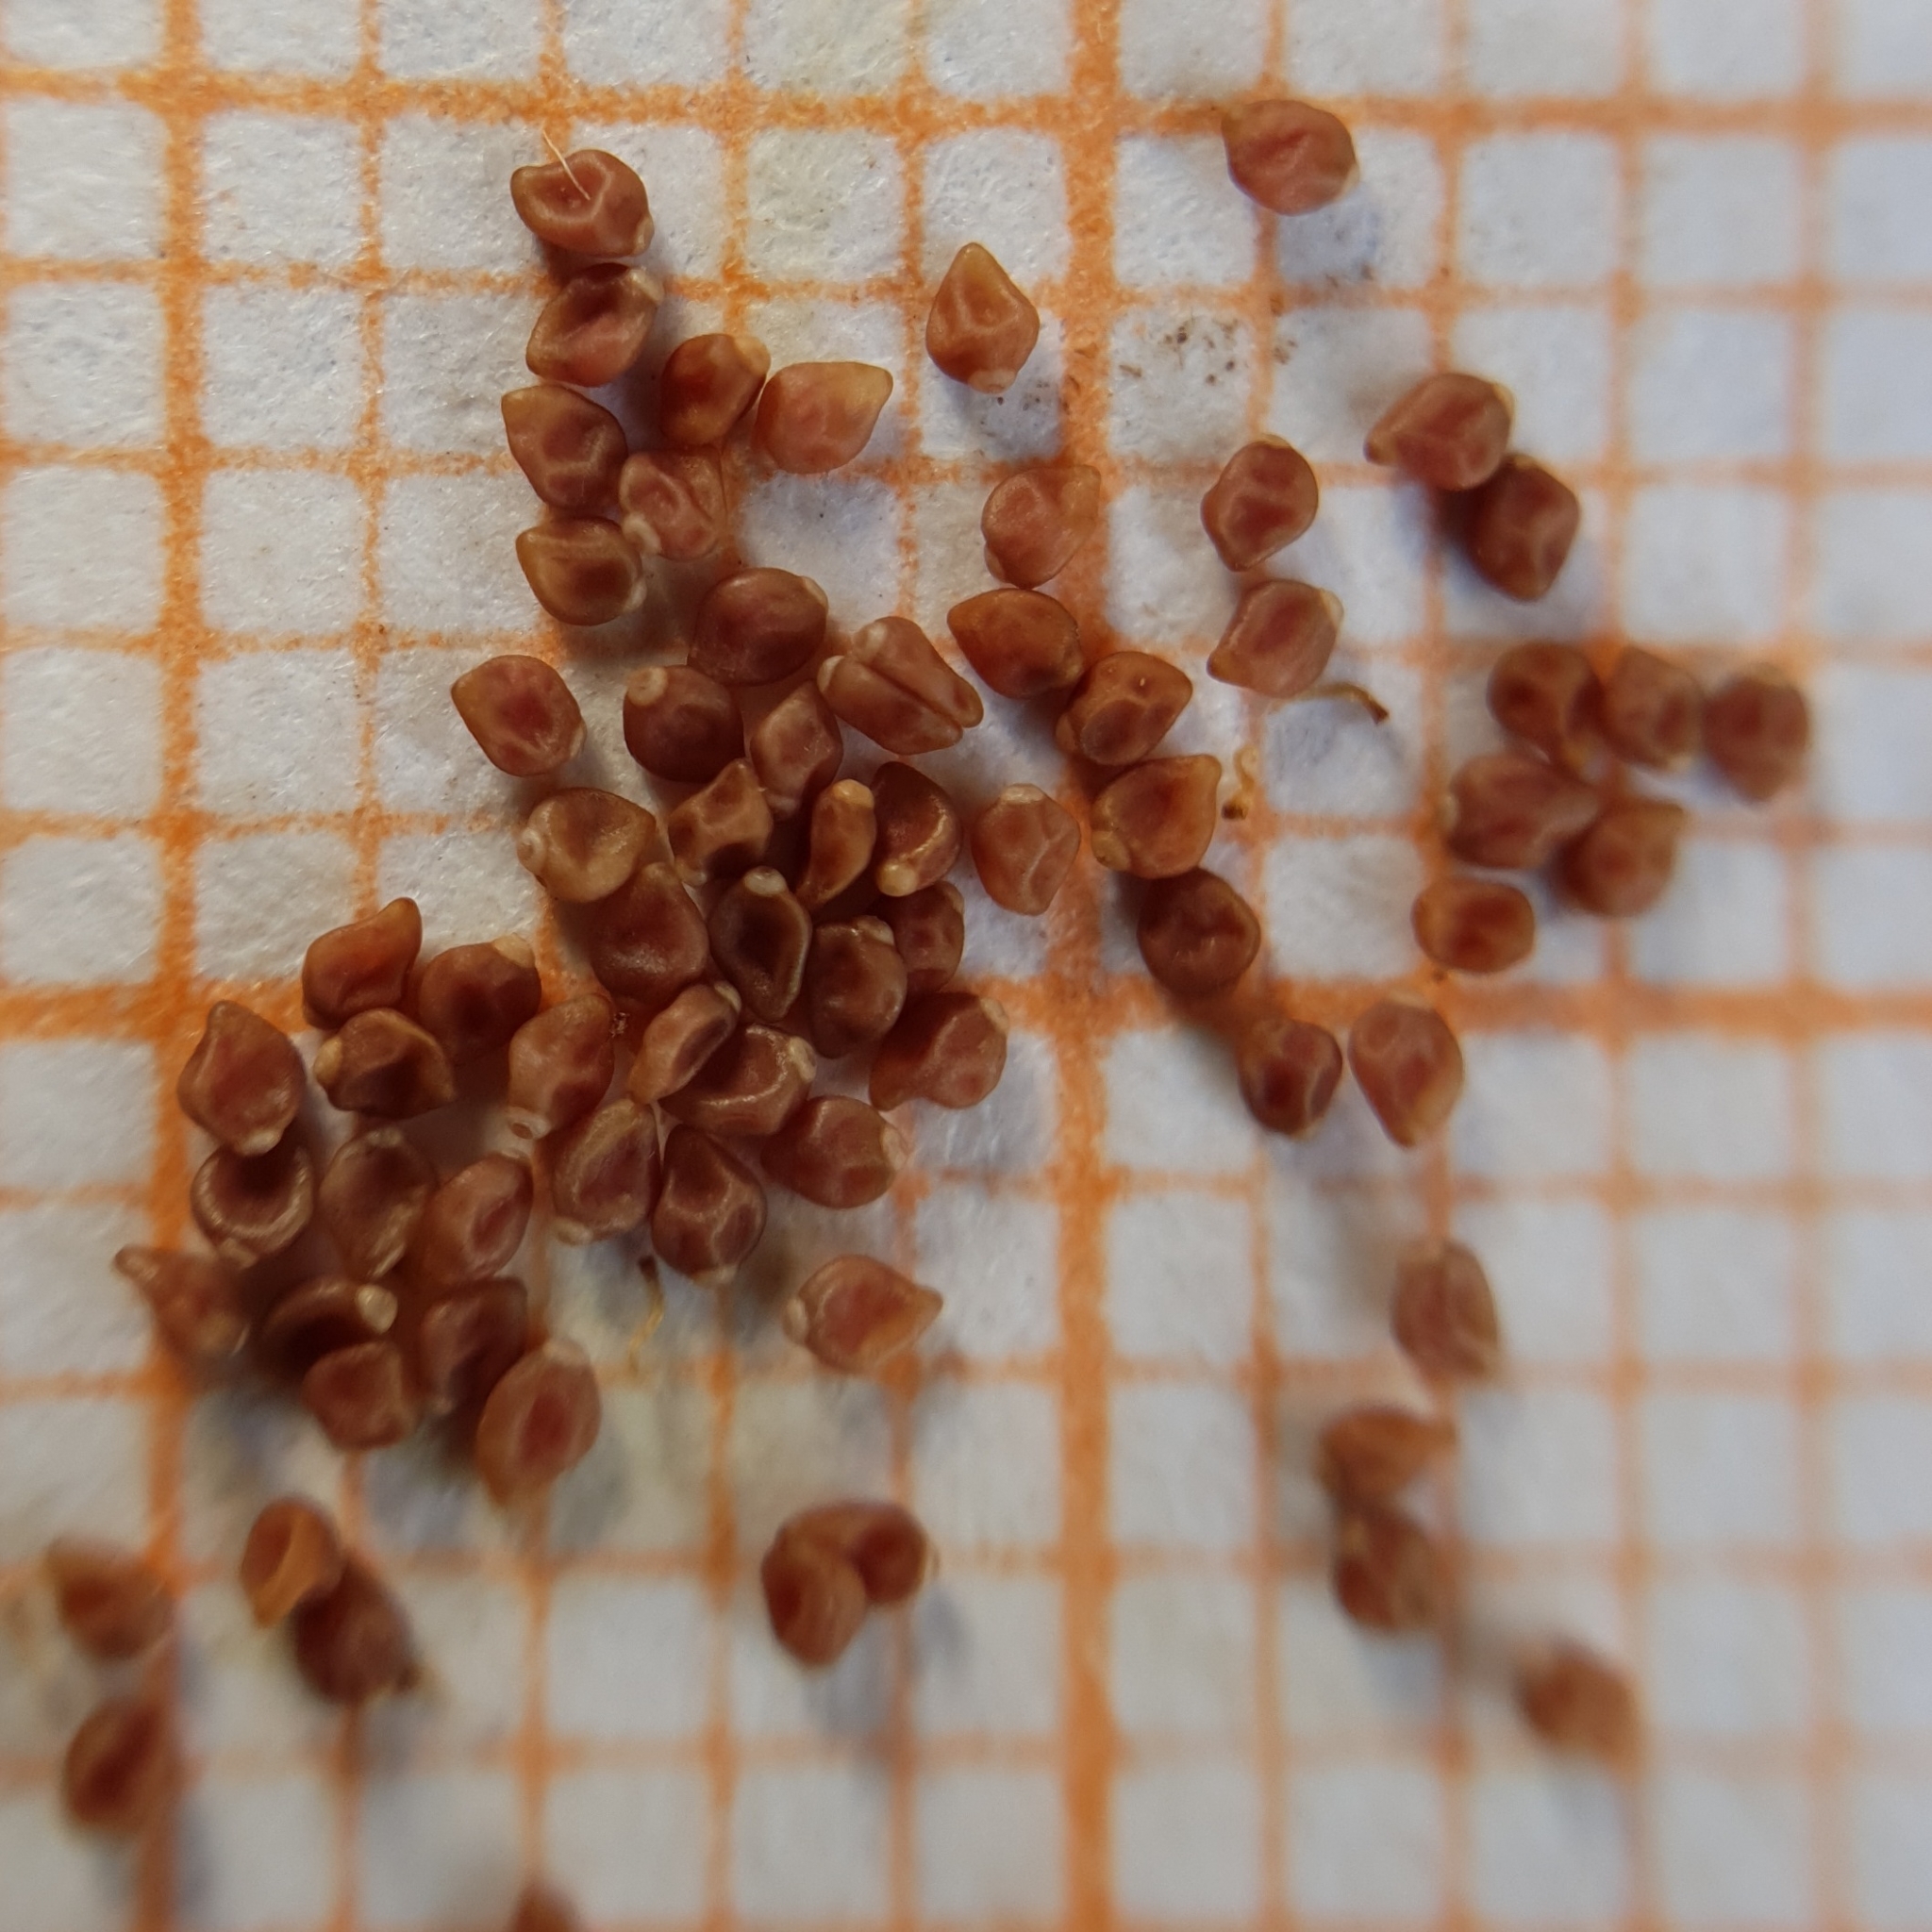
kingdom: Plantae
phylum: Tracheophyta
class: Magnoliopsida
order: Malvales
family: Cistaceae
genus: Helianthemum
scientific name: Helianthemum ledifolium
